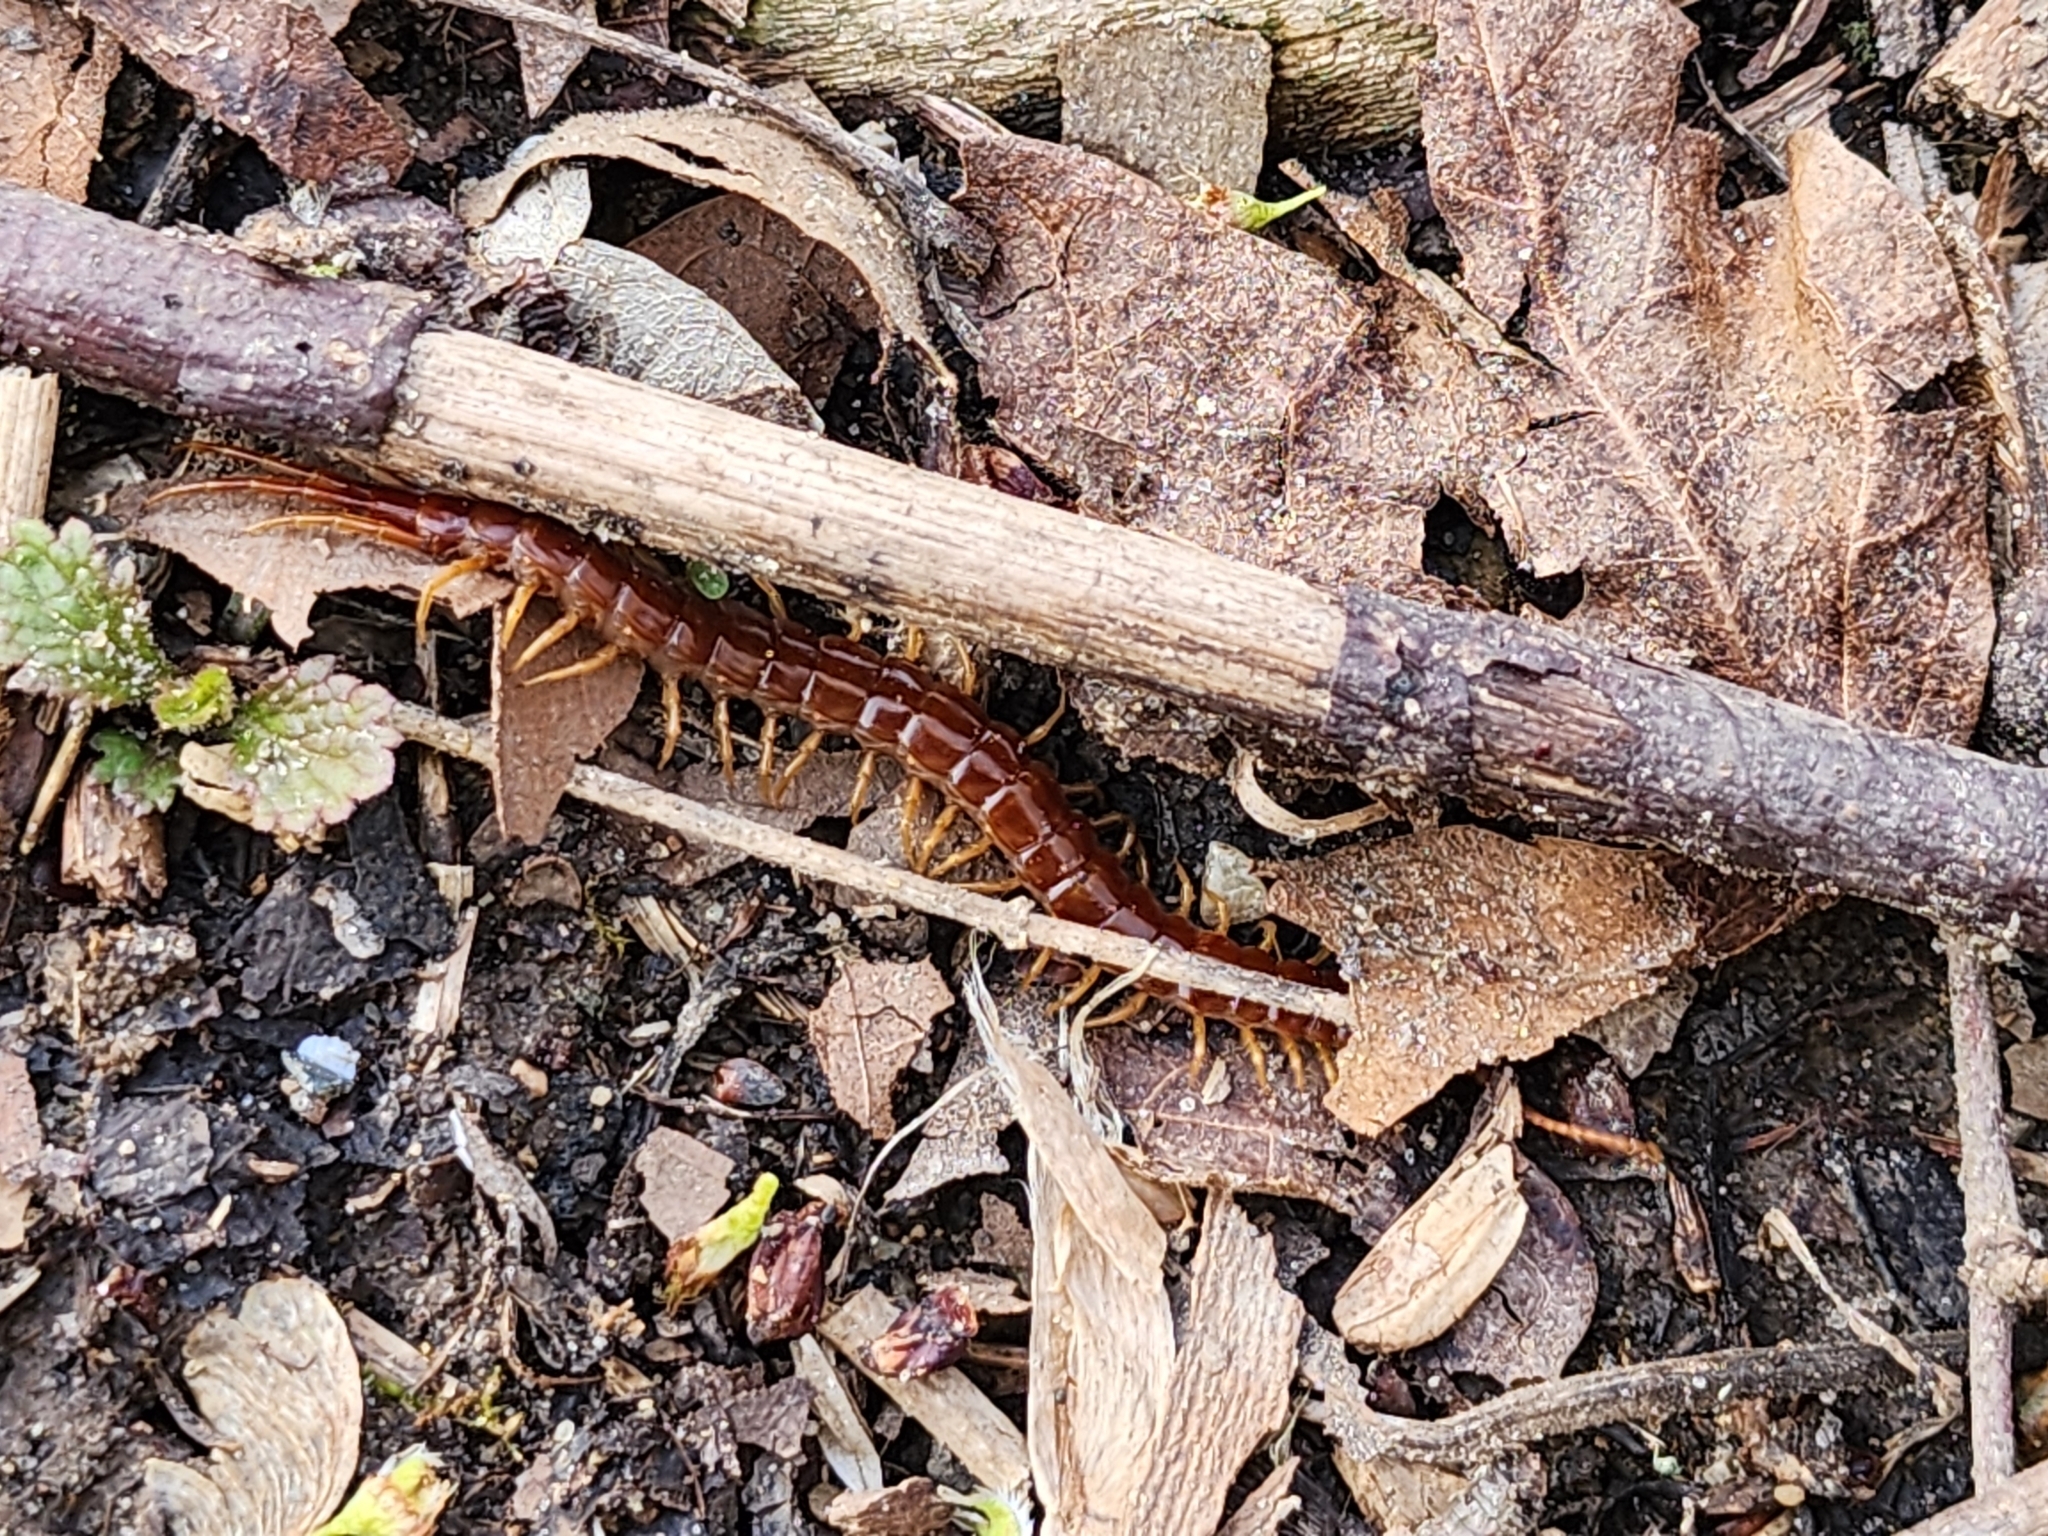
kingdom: Animalia
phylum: Arthropoda
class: Chilopoda
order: Scolopendromorpha
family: Scolopocryptopidae
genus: Scolopocryptops
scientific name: Scolopocryptops sexspinosus
